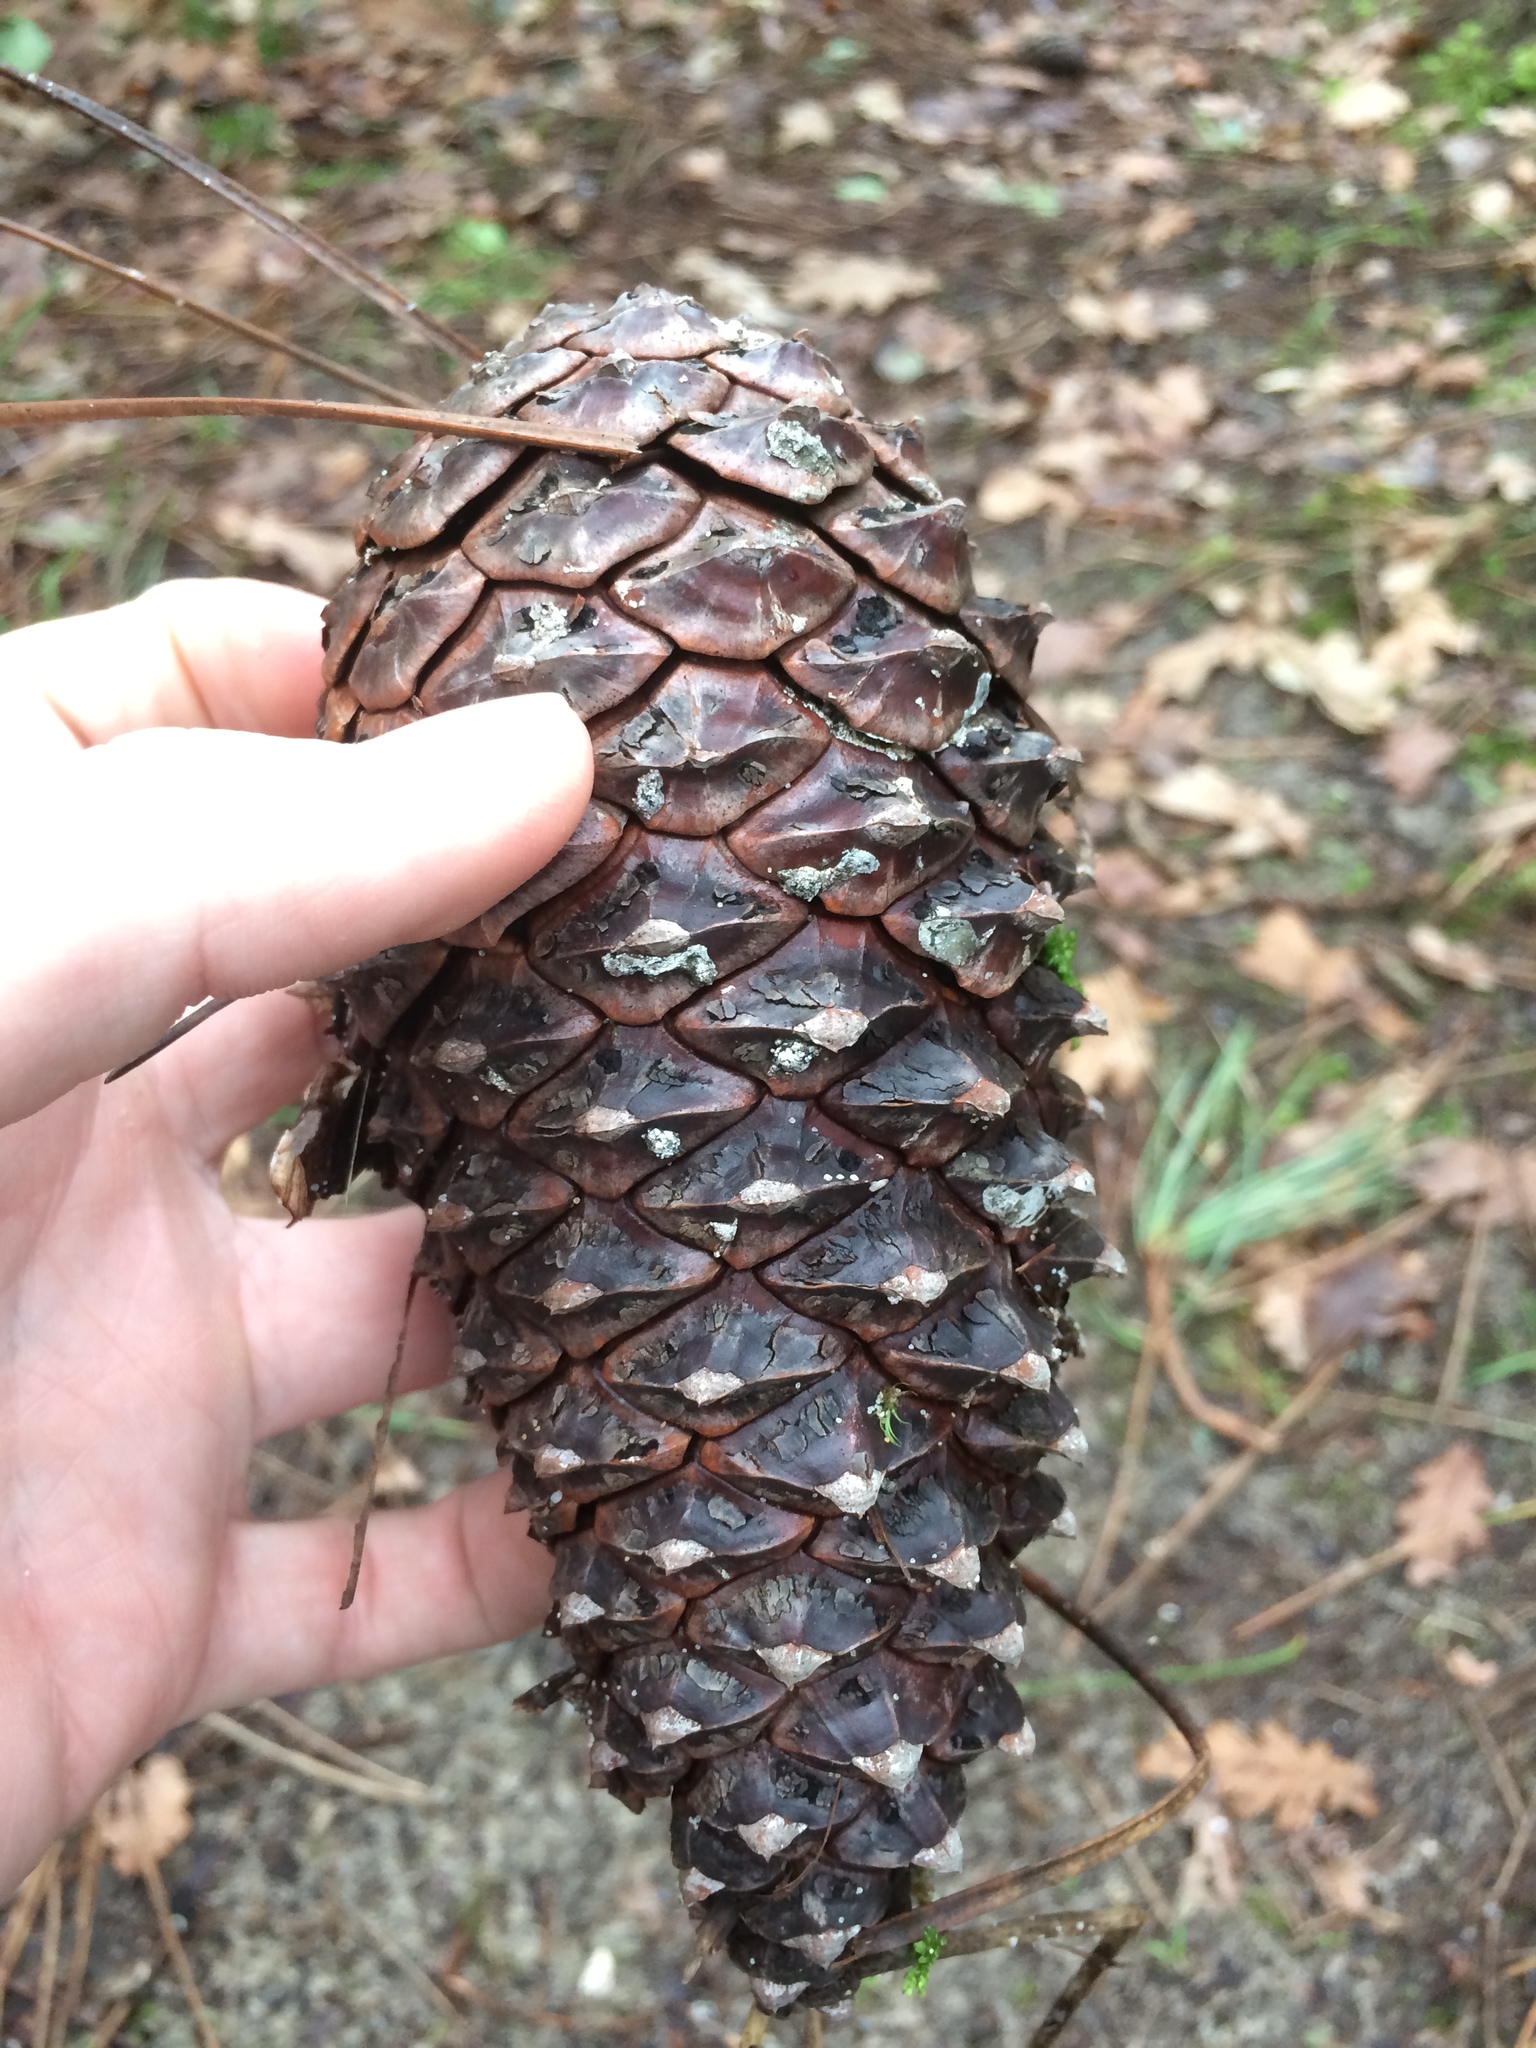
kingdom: Plantae
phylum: Tracheophyta
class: Pinopsida
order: Pinales
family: Pinaceae
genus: Pinus
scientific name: Pinus pinaster
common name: Maritime pine
